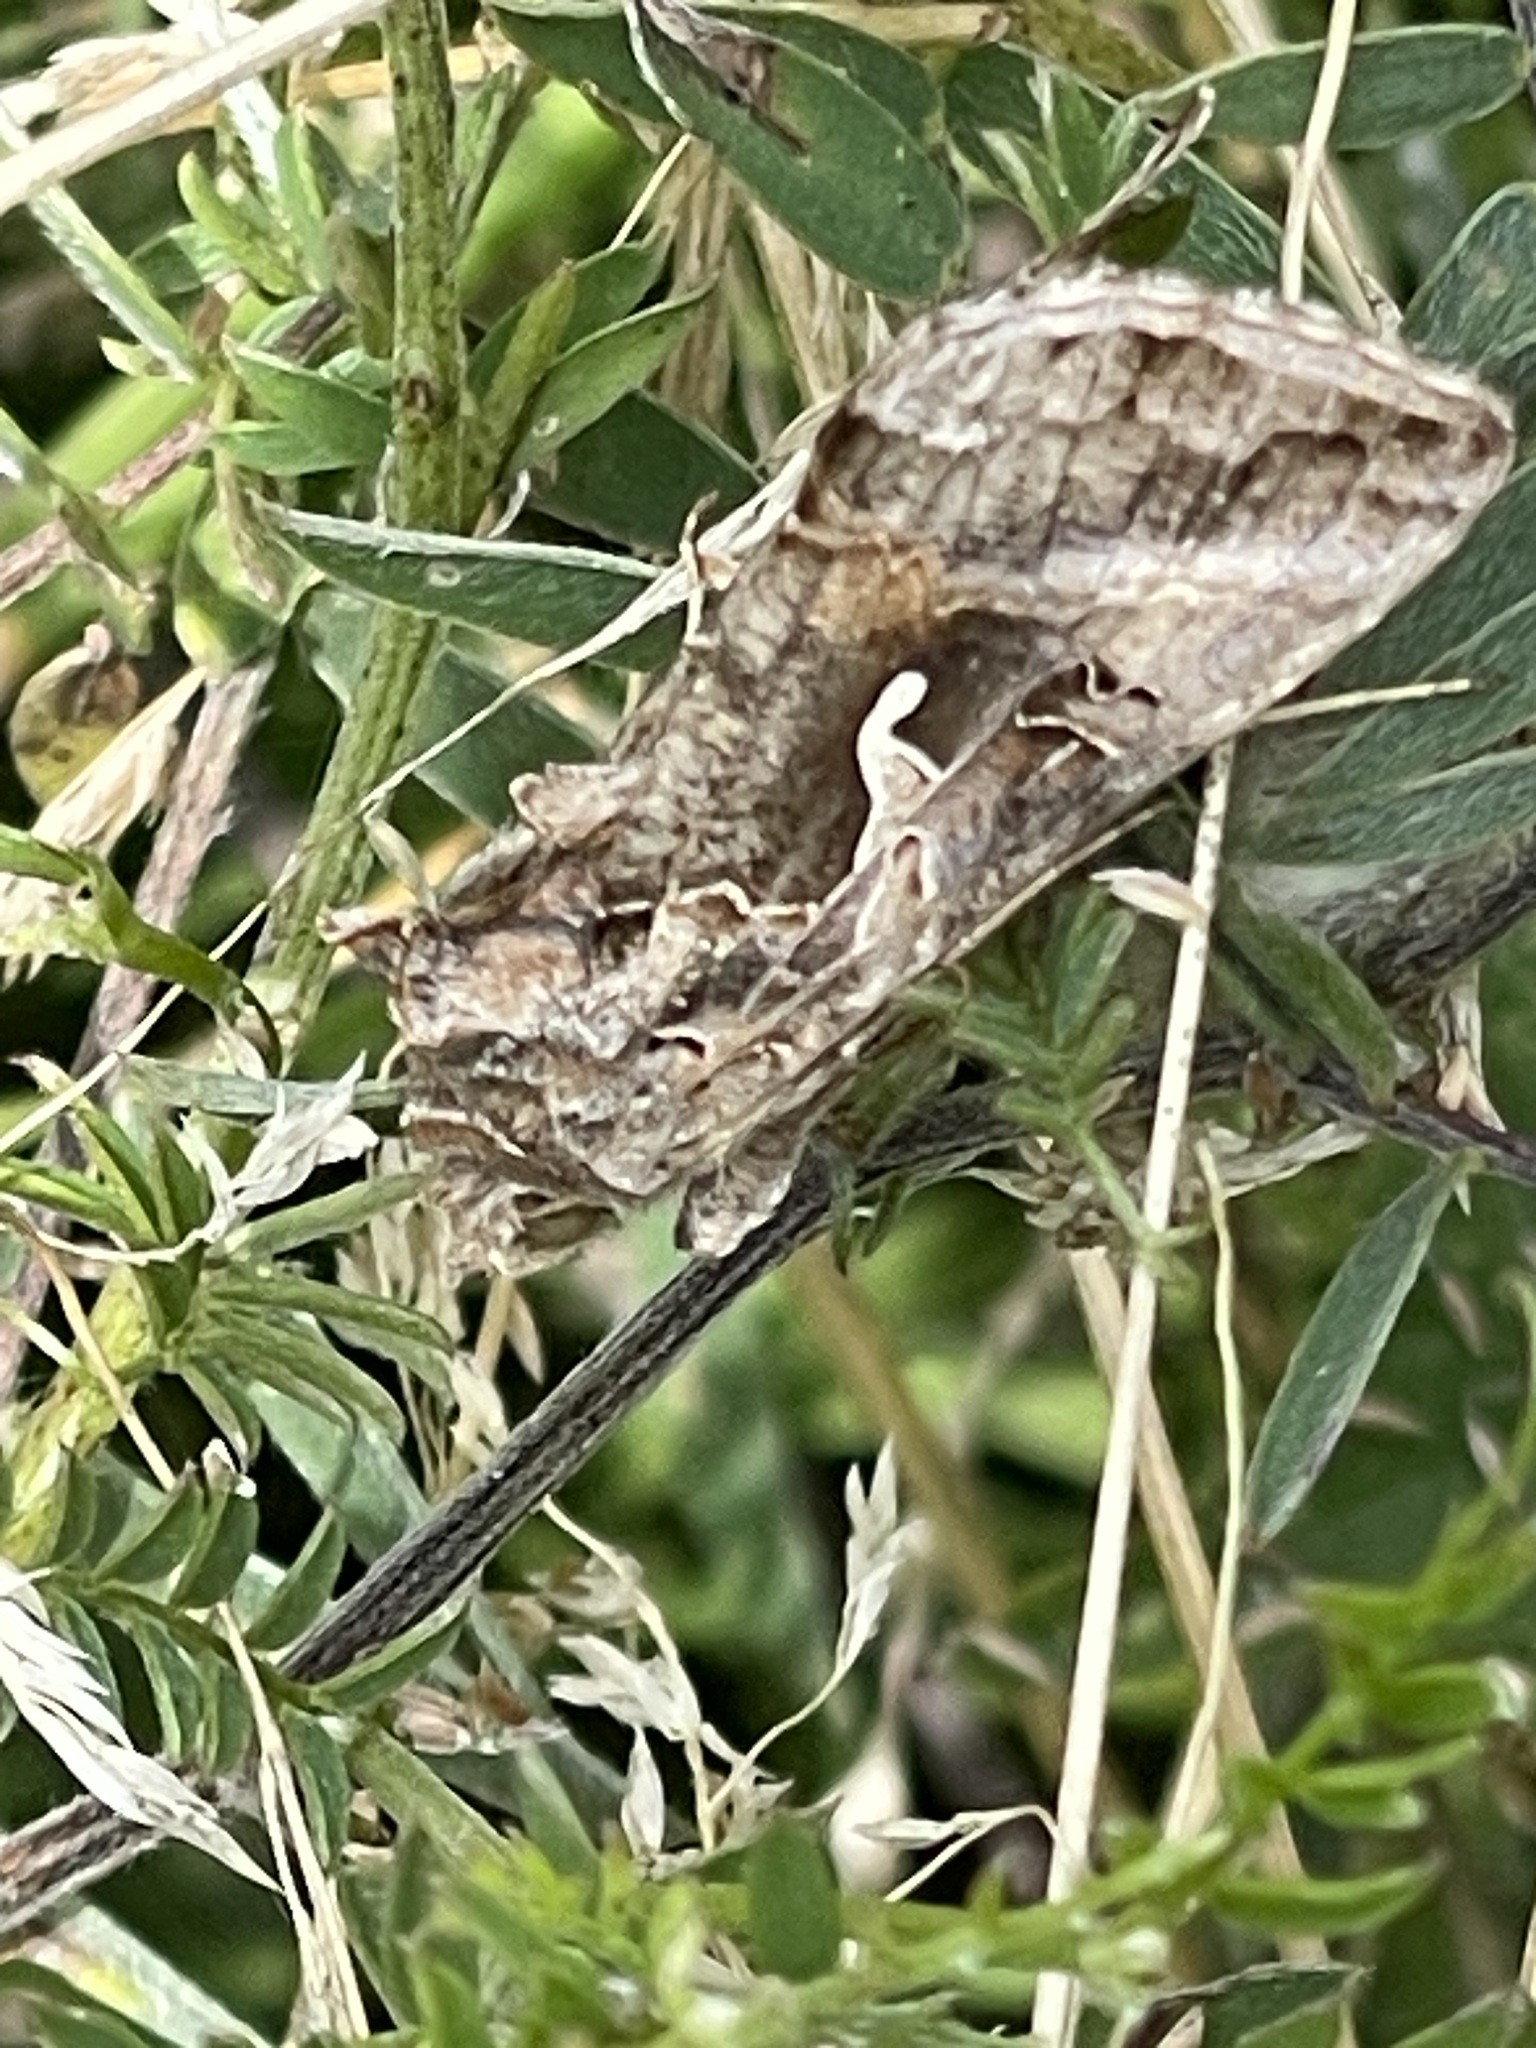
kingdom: Animalia
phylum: Arthropoda
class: Insecta
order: Lepidoptera
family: Noctuidae
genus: Autographa
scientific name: Autographa gamma
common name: Silver y
